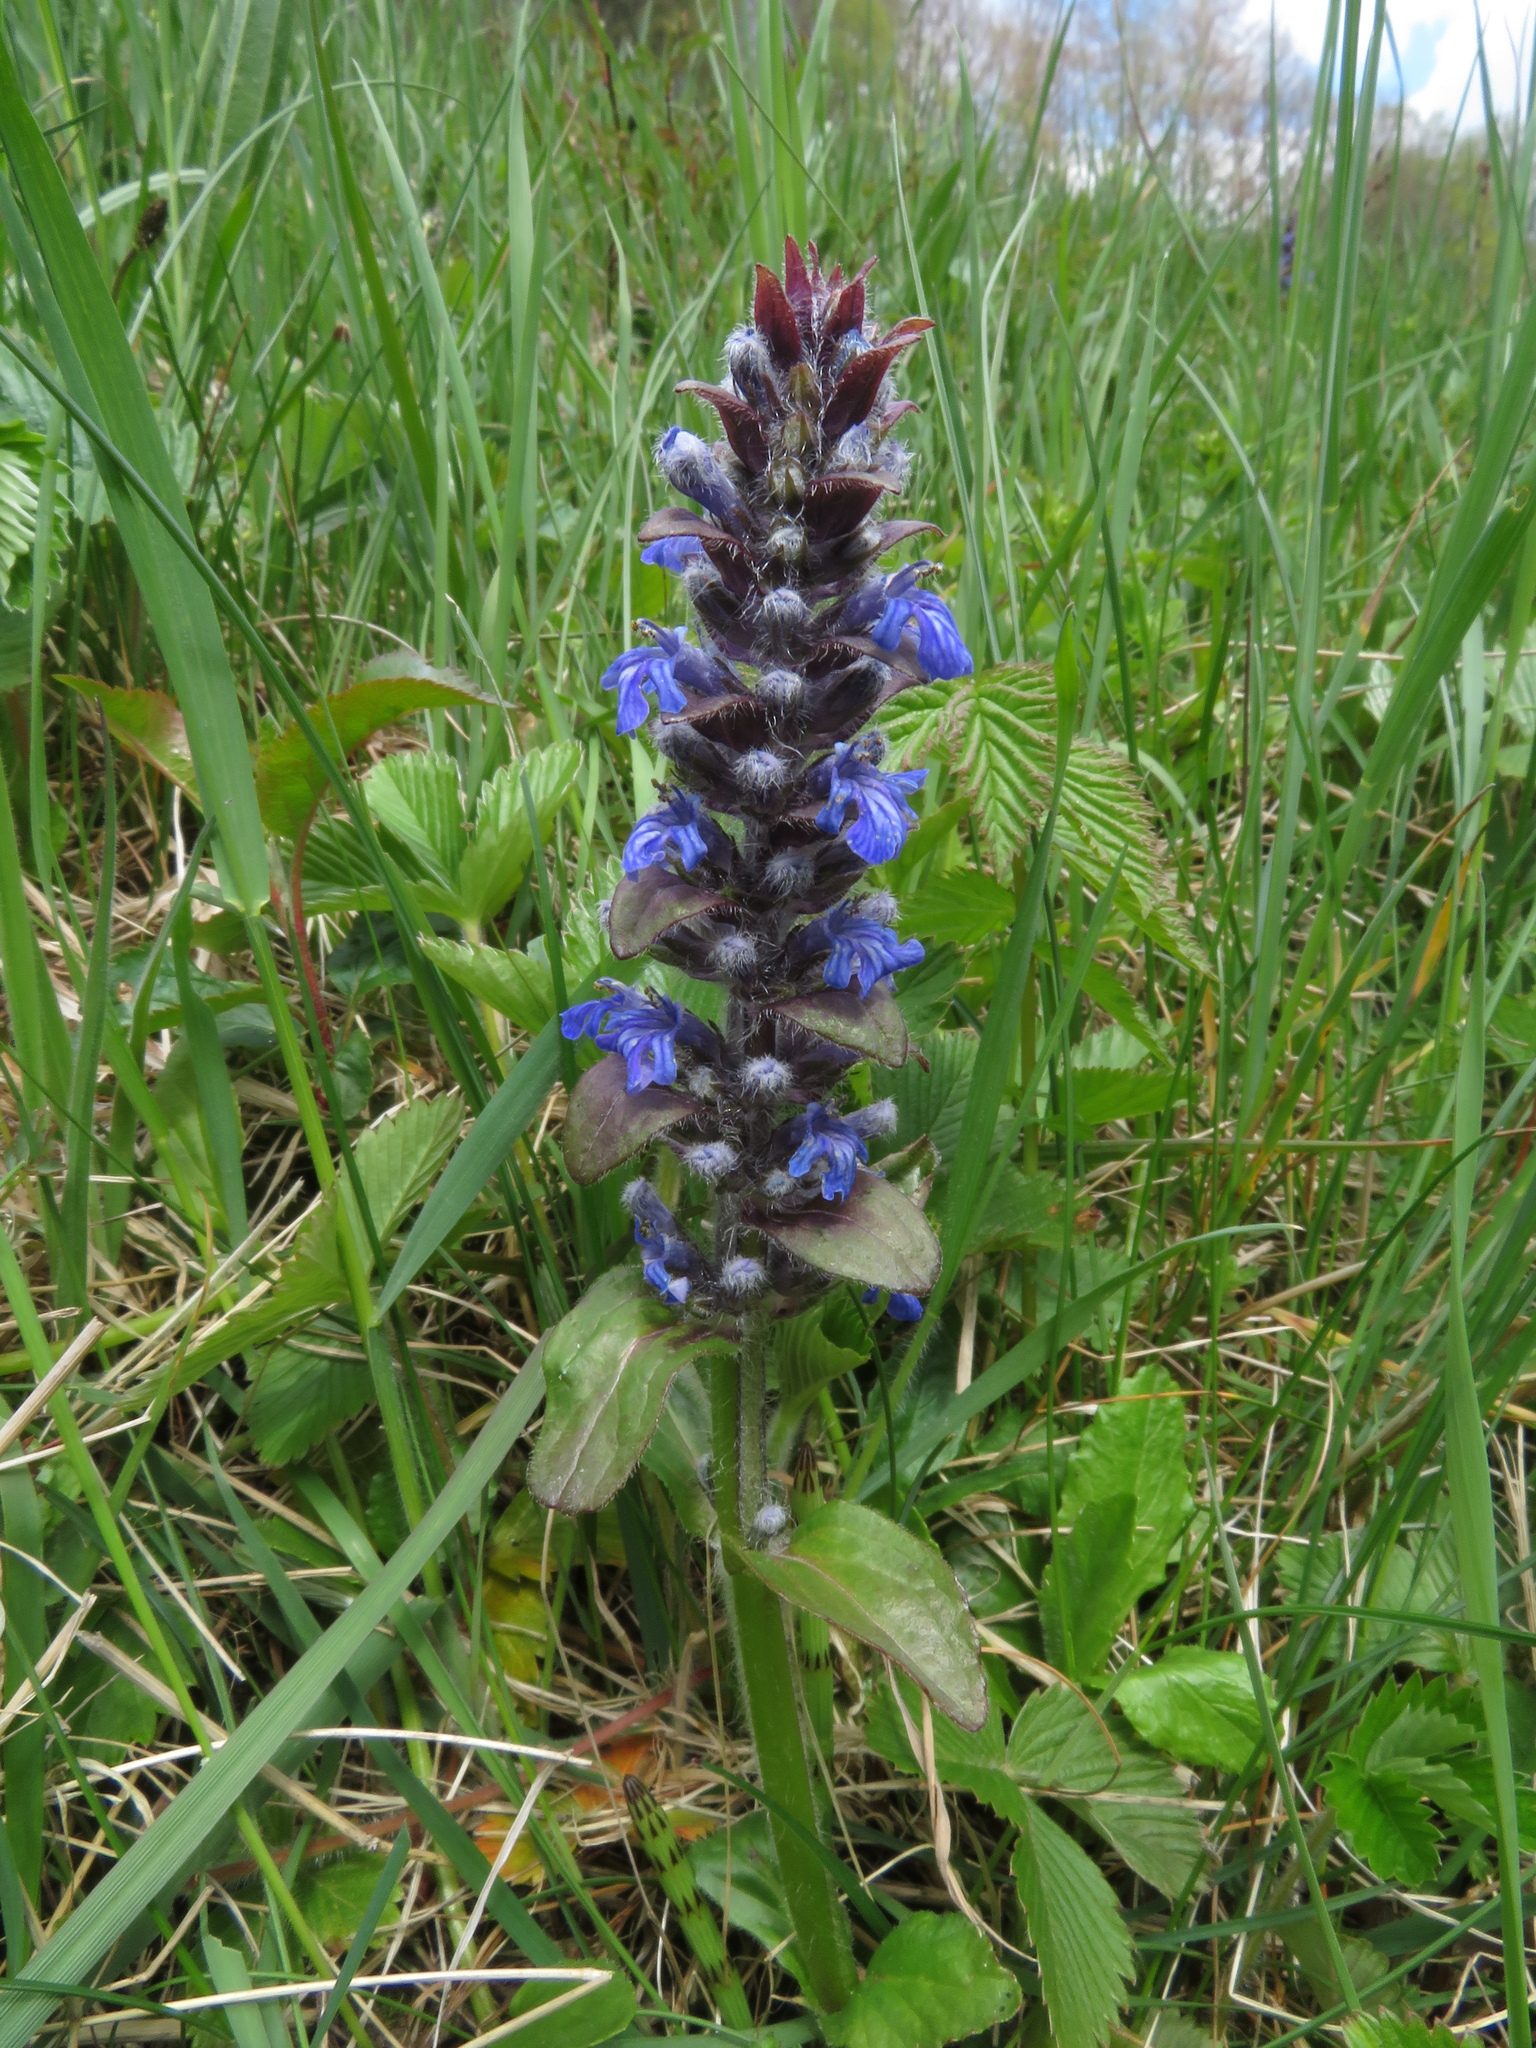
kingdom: Plantae
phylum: Tracheophyta
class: Magnoliopsida
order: Lamiales
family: Lamiaceae
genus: Ajuga
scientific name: Ajuga reptans
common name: Bugle
